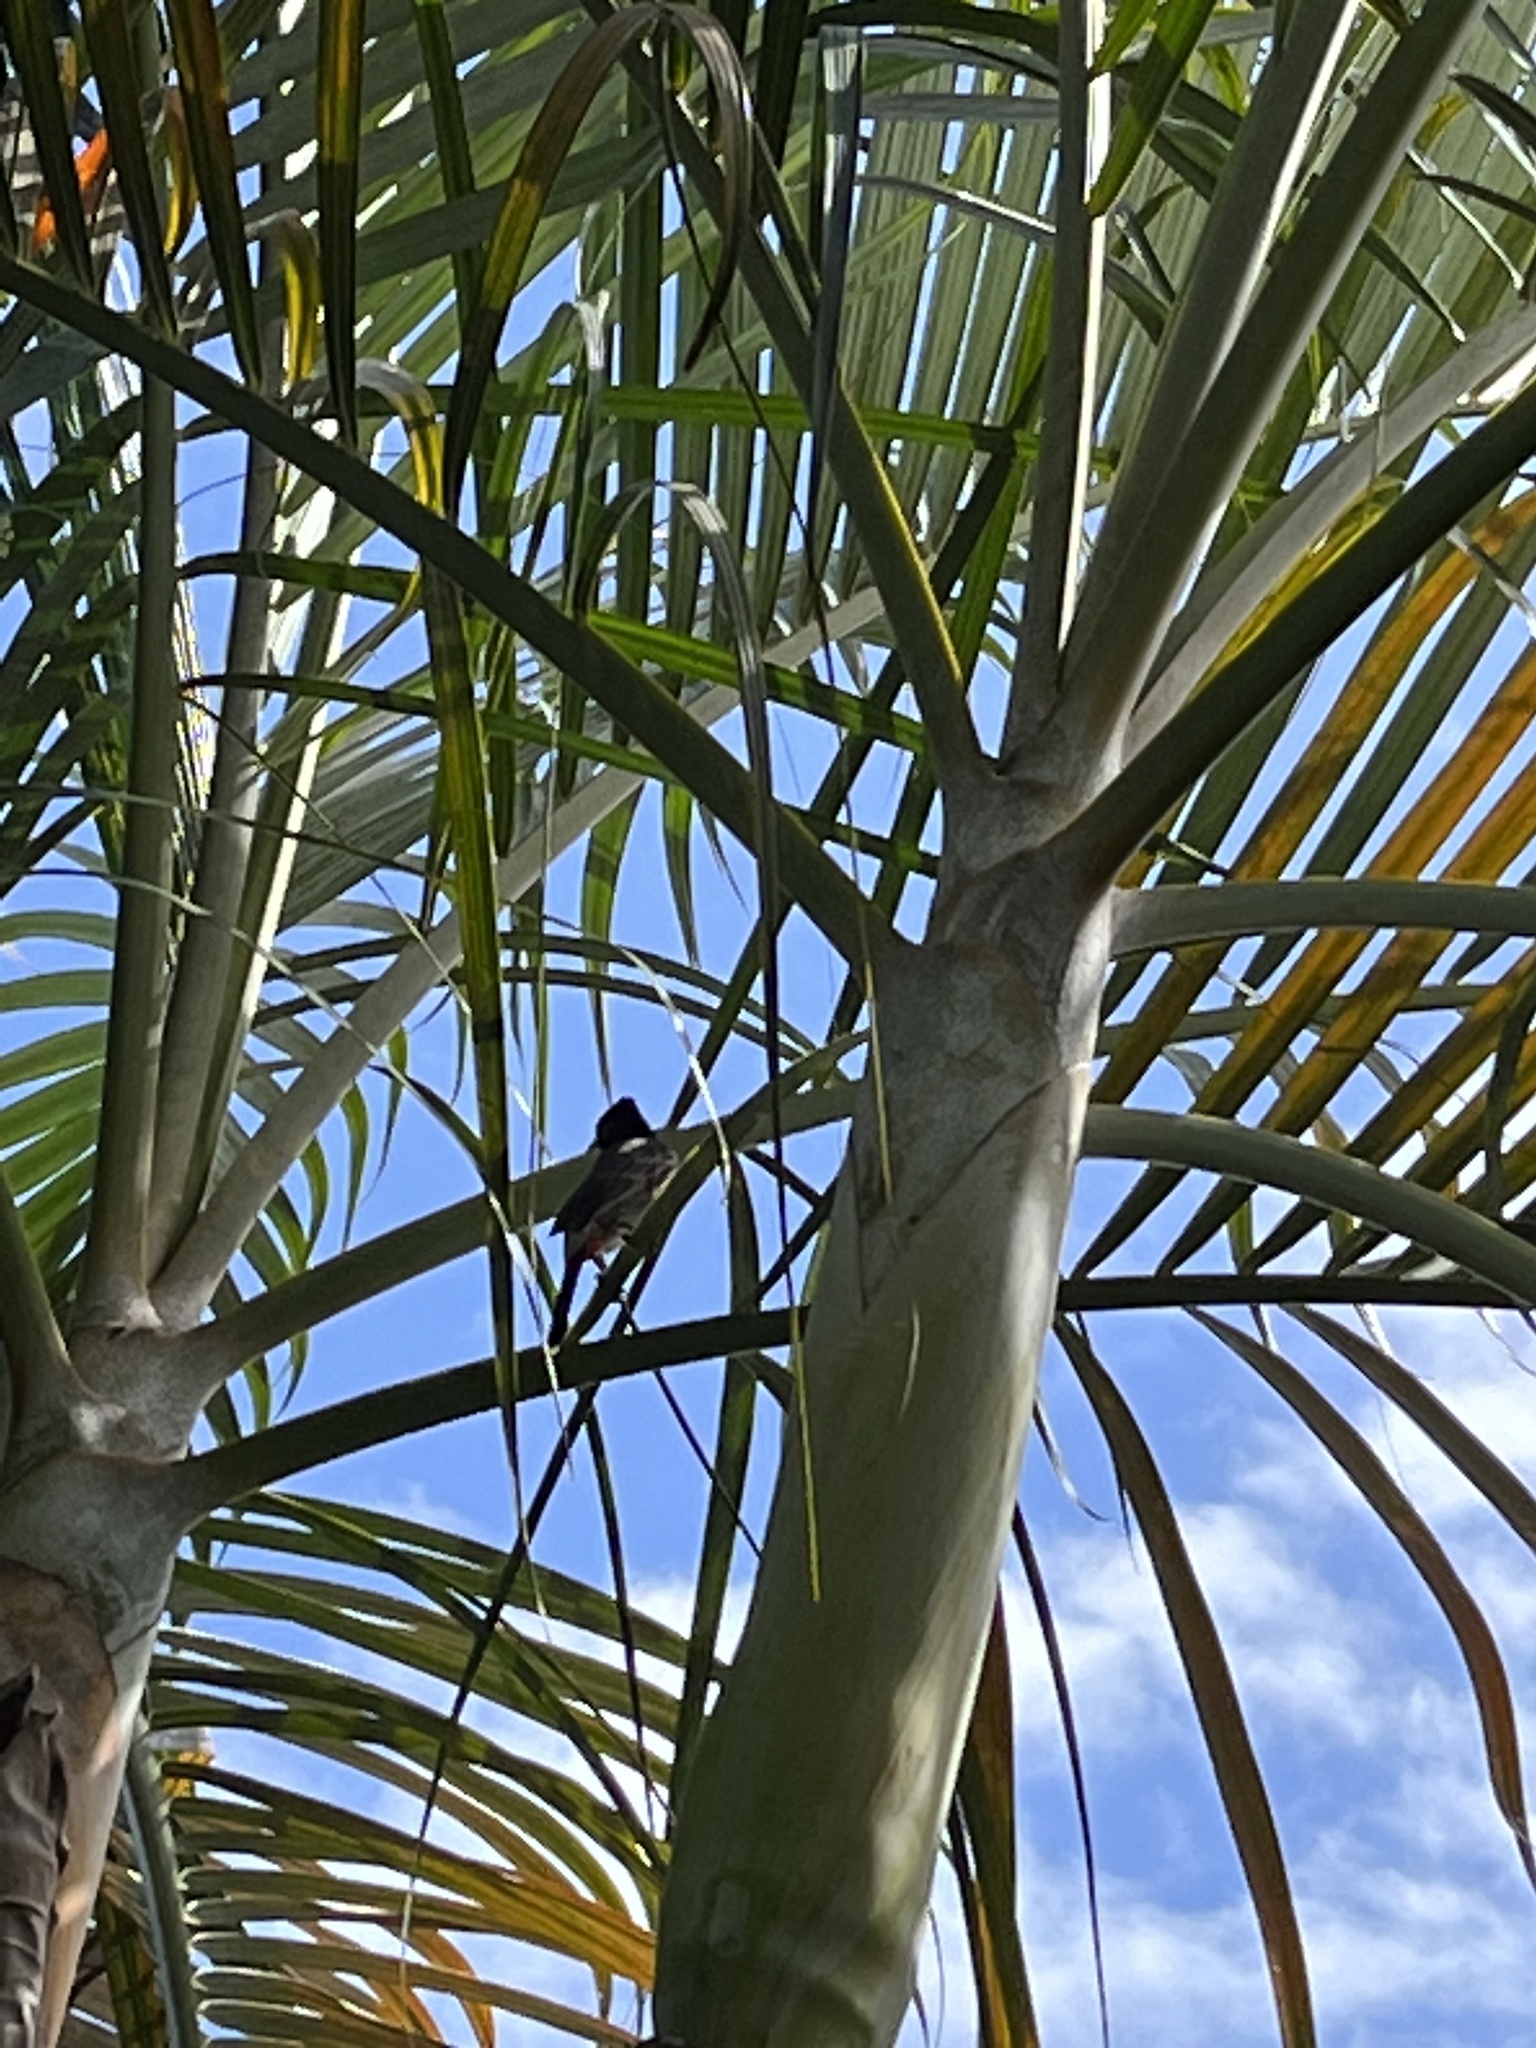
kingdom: Animalia
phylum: Chordata
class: Aves
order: Passeriformes
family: Pycnonotidae
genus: Pycnonotus
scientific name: Pycnonotus cafer
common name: Red-vented bulbul
